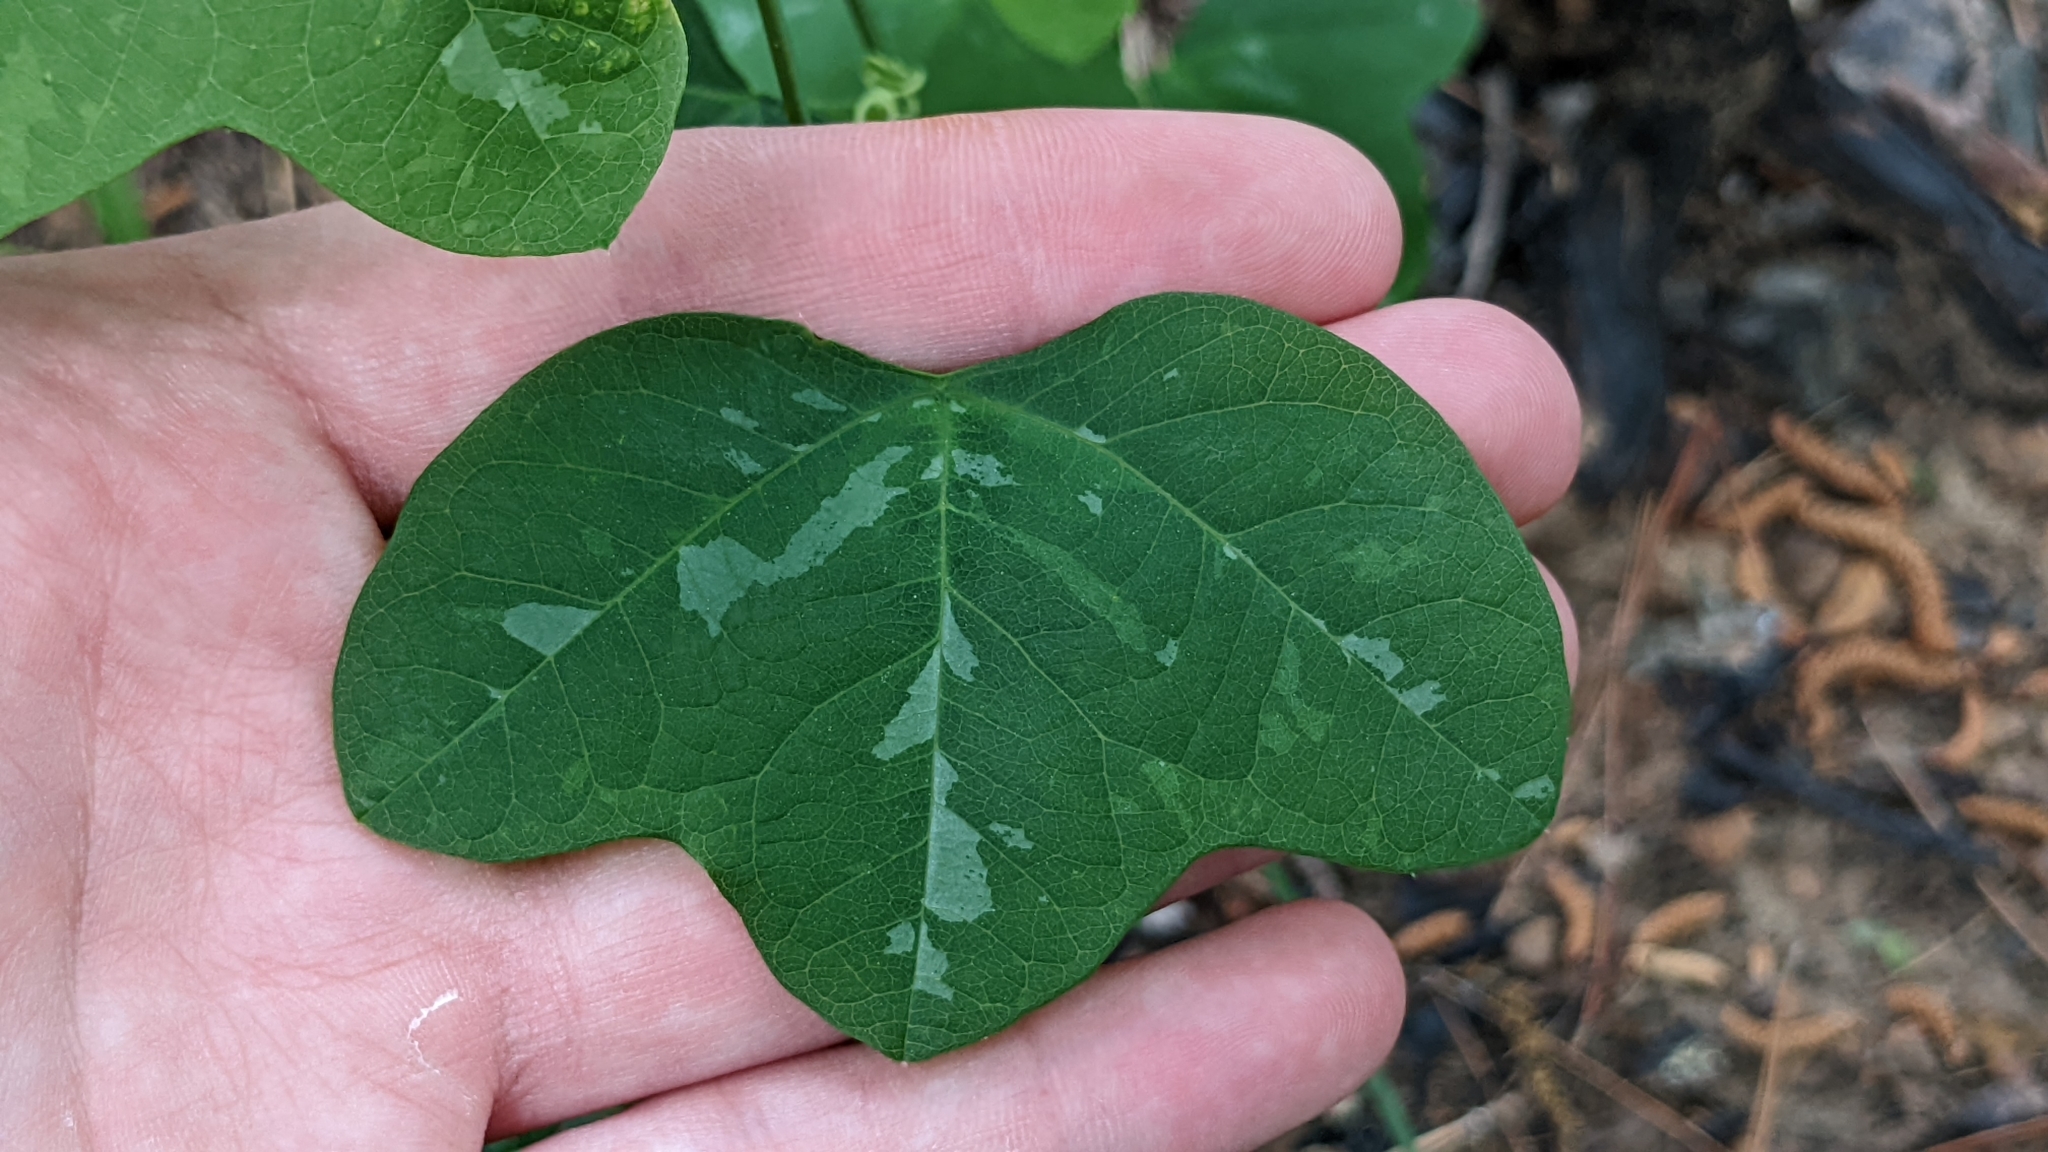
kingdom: Plantae
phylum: Tracheophyta
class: Magnoliopsida
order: Malpighiales
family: Passifloraceae
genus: Passiflora
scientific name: Passiflora lutea
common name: Yellow passionflower
